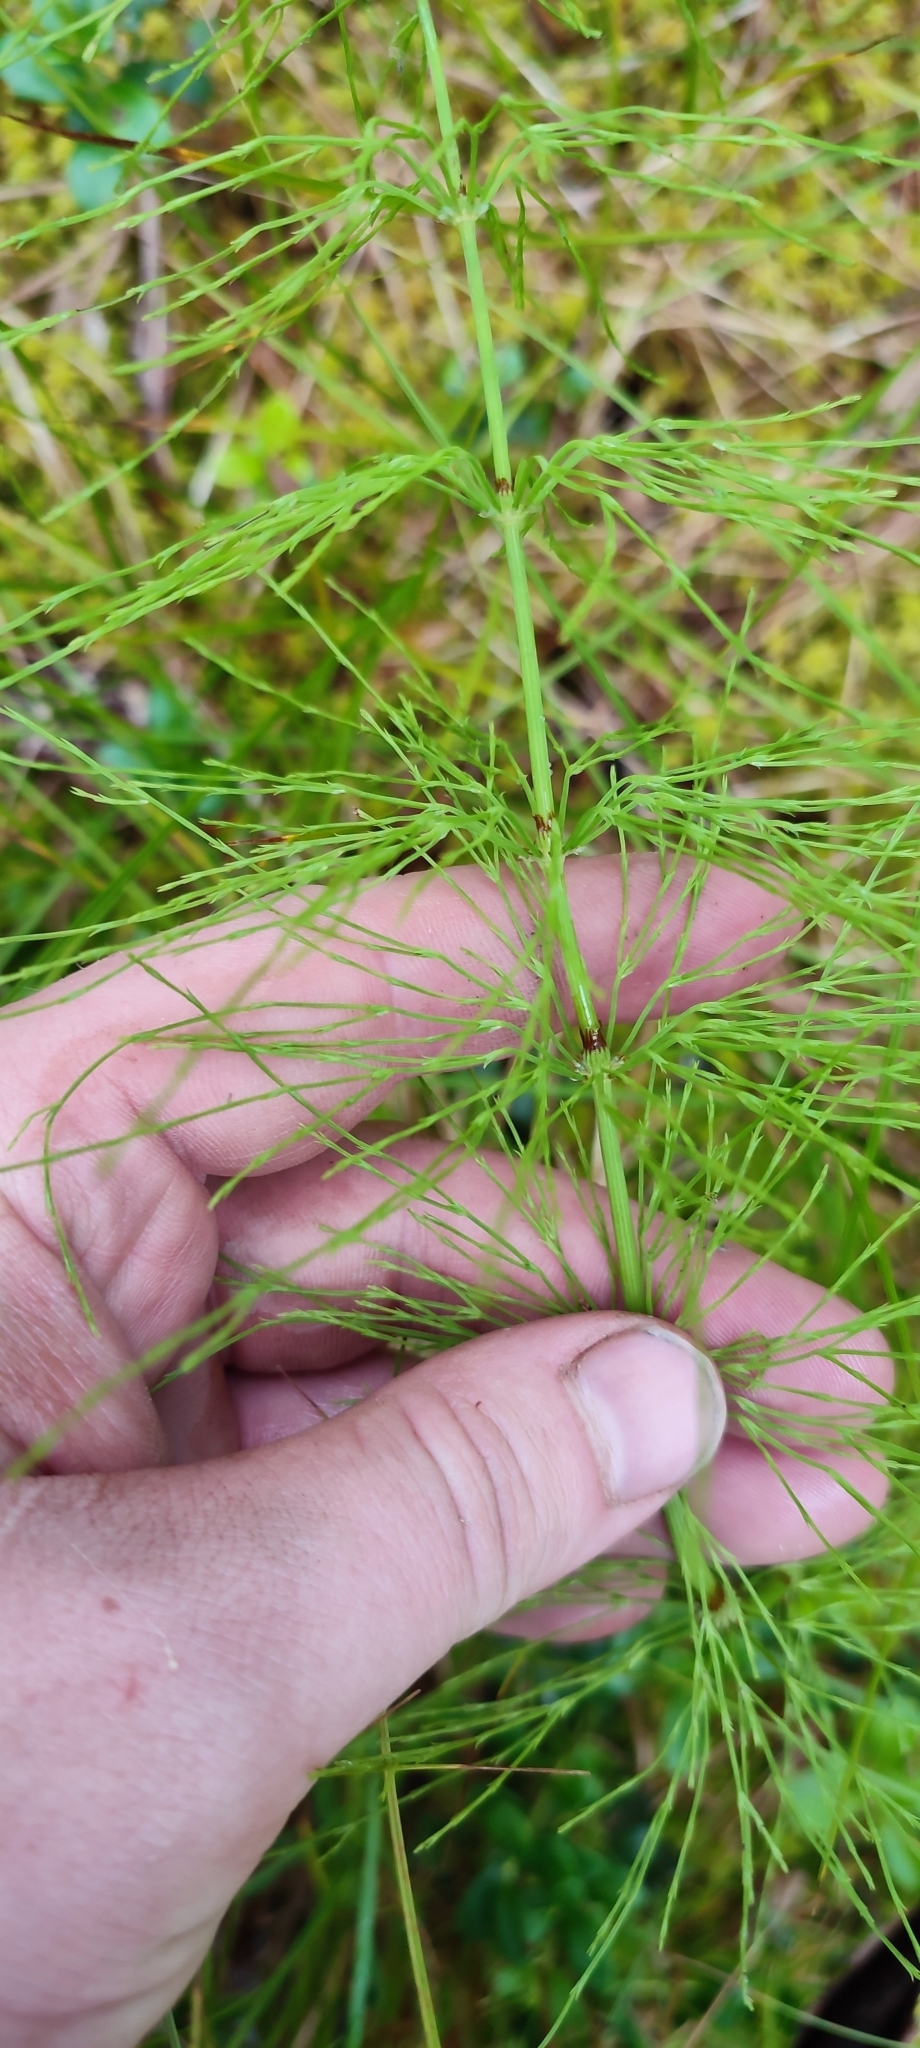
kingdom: Plantae
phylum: Tracheophyta
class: Polypodiopsida
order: Equisetales
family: Equisetaceae
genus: Equisetum
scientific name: Equisetum sylvaticum
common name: Wood horsetail
